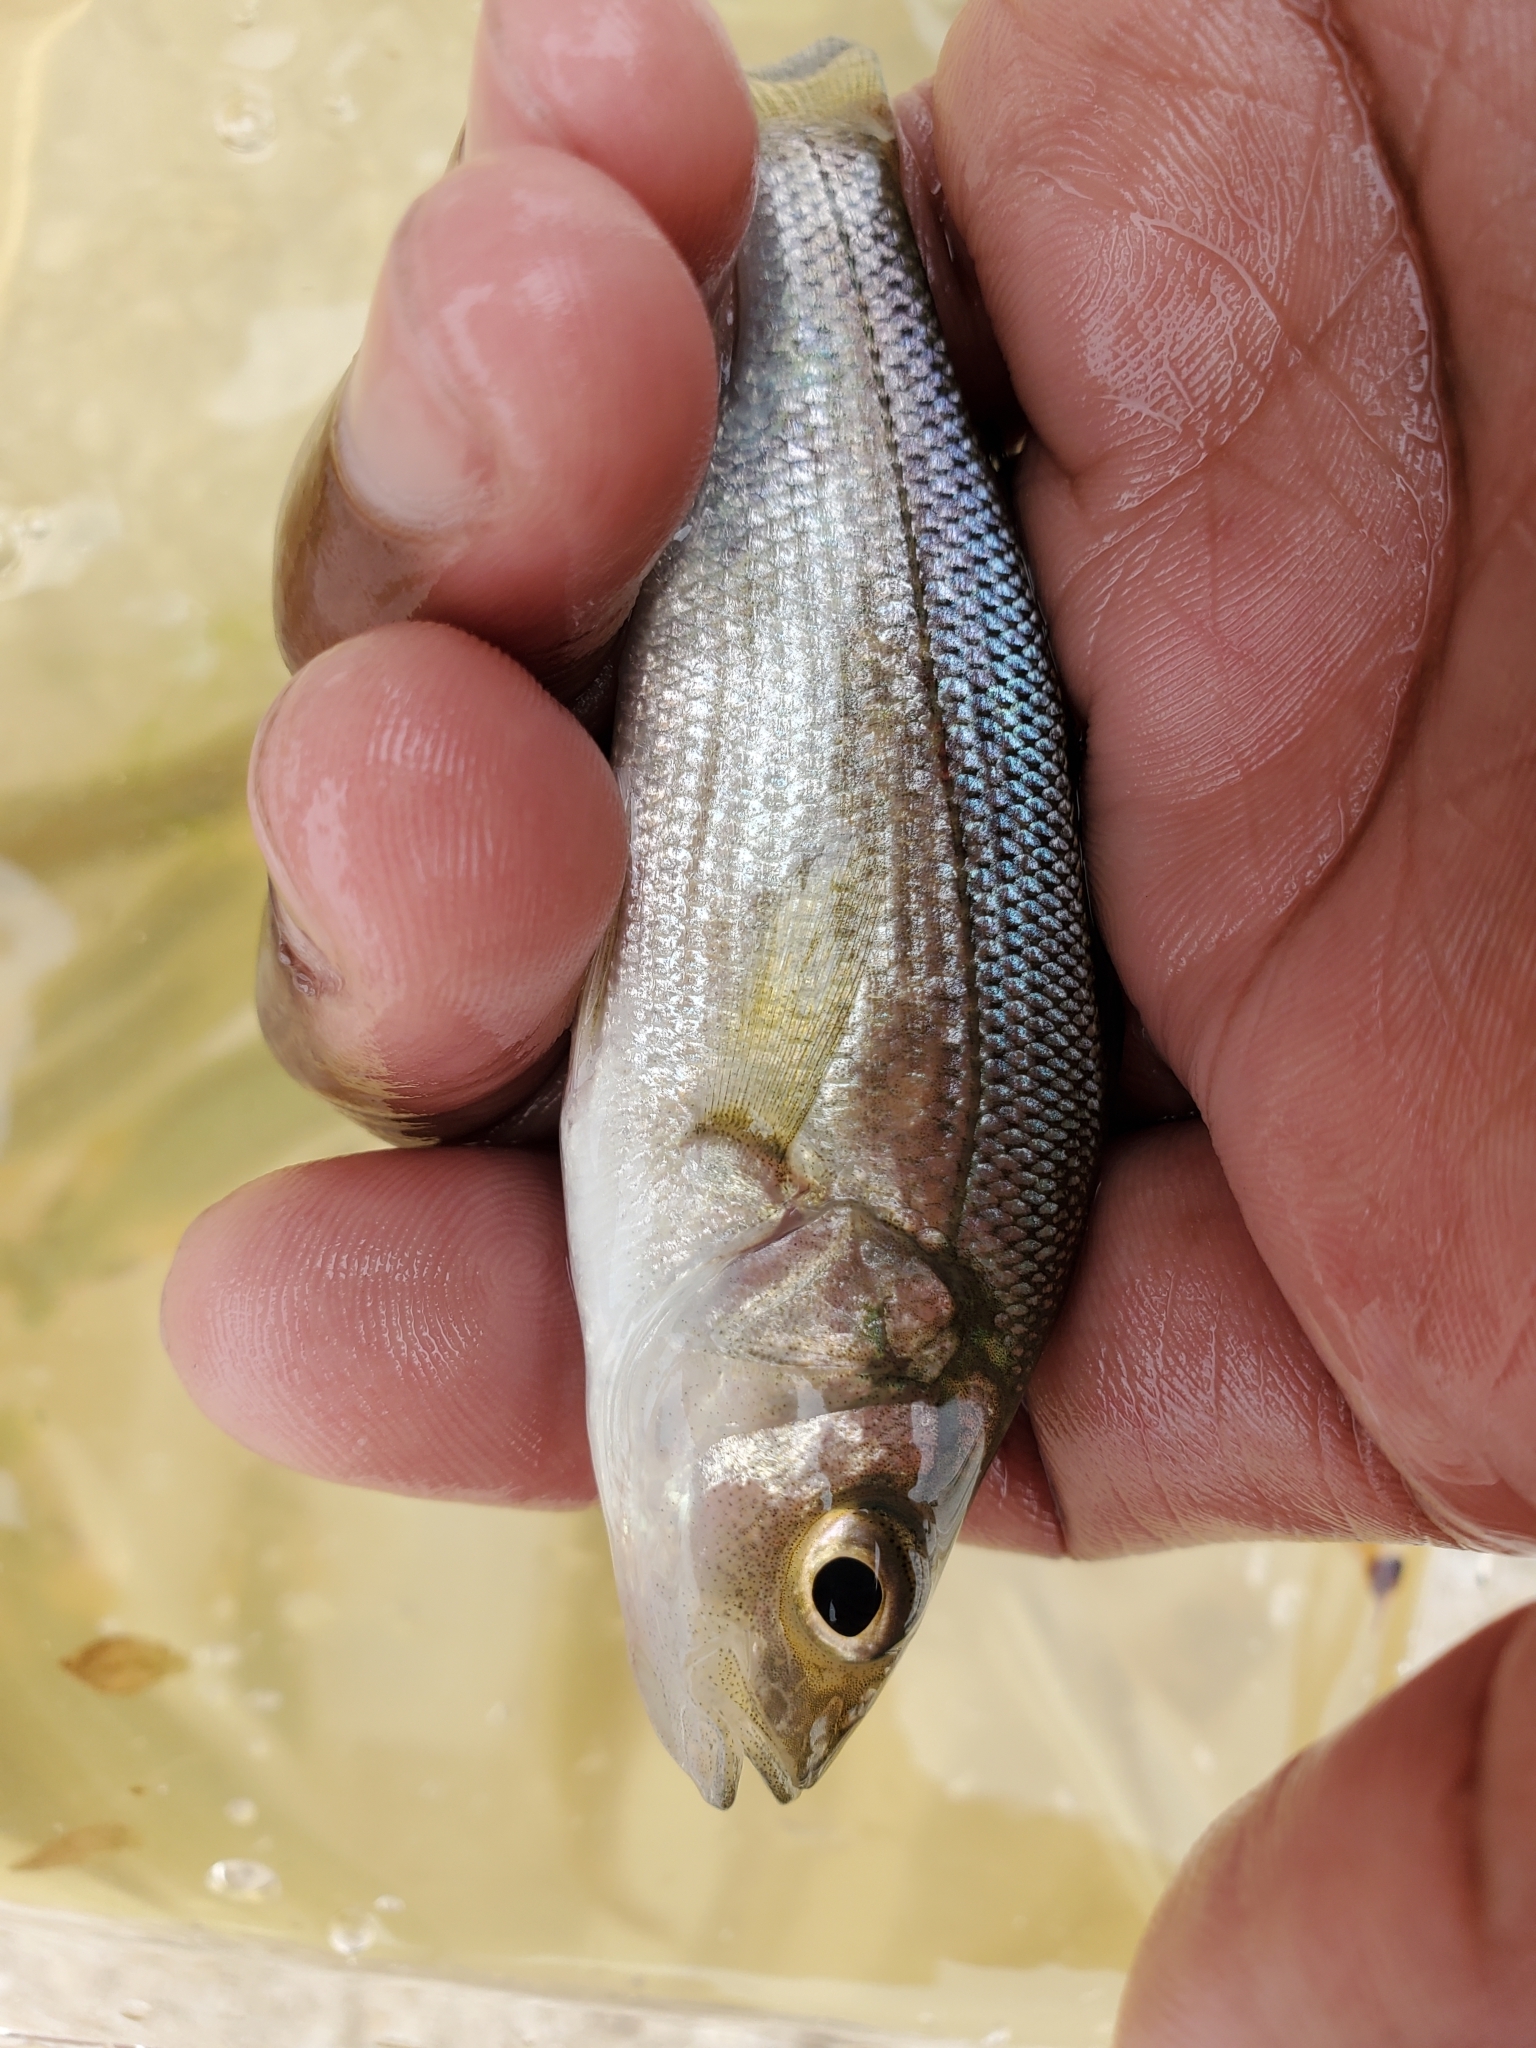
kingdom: Animalia
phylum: Chordata
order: Perciformes
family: Moronidae
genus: Morone
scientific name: Morone americana
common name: White perch
